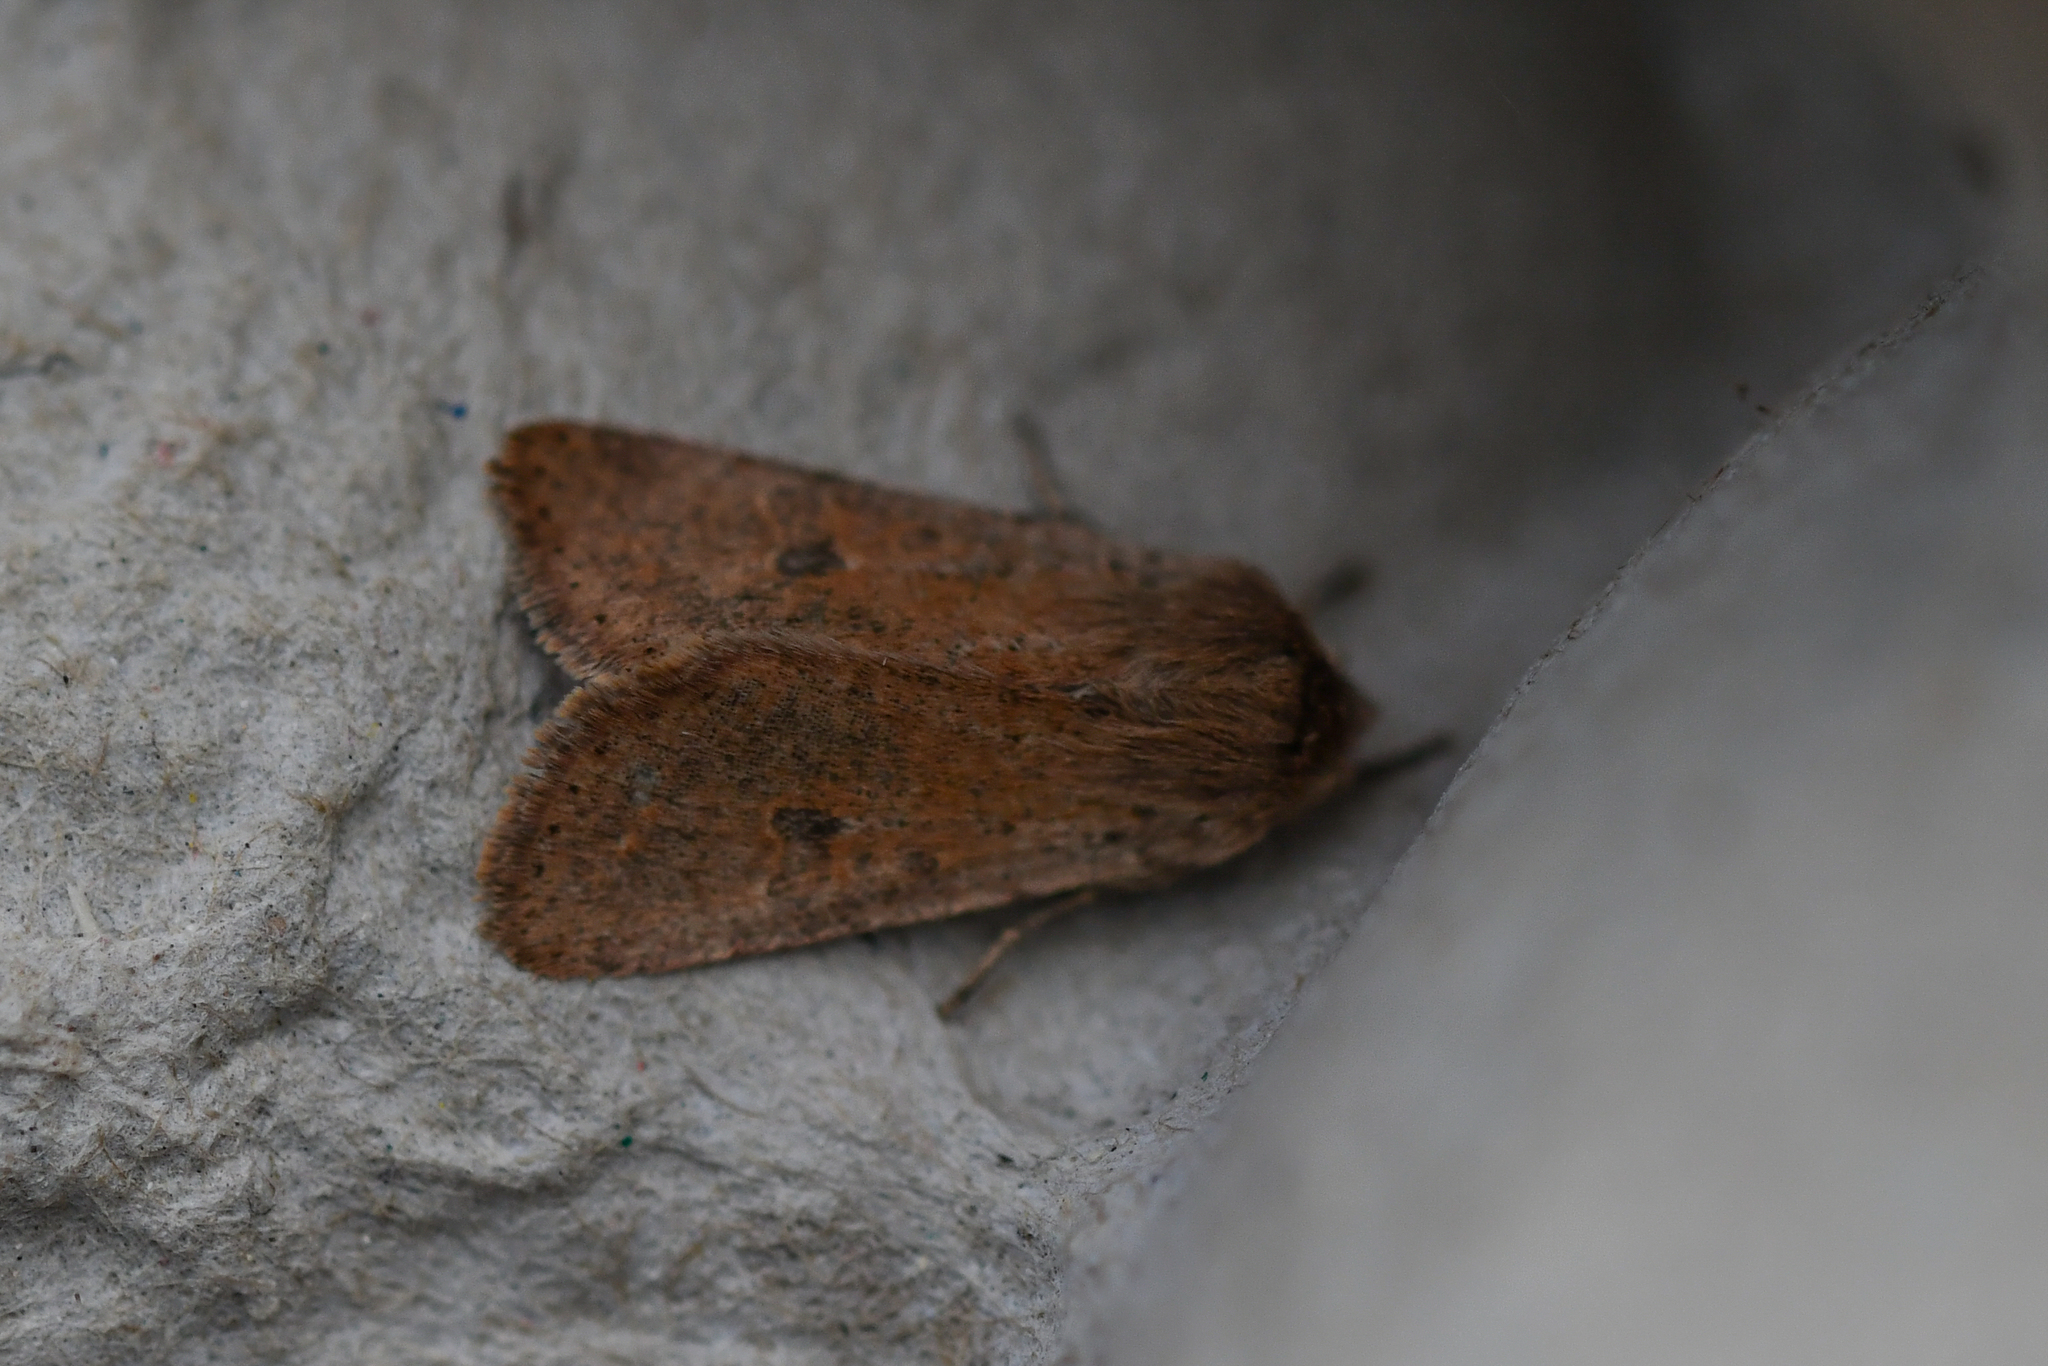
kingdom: Animalia
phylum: Arthropoda
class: Insecta
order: Lepidoptera
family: Noctuidae
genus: Orthosia
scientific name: Orthosia cruda
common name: Small quaker
